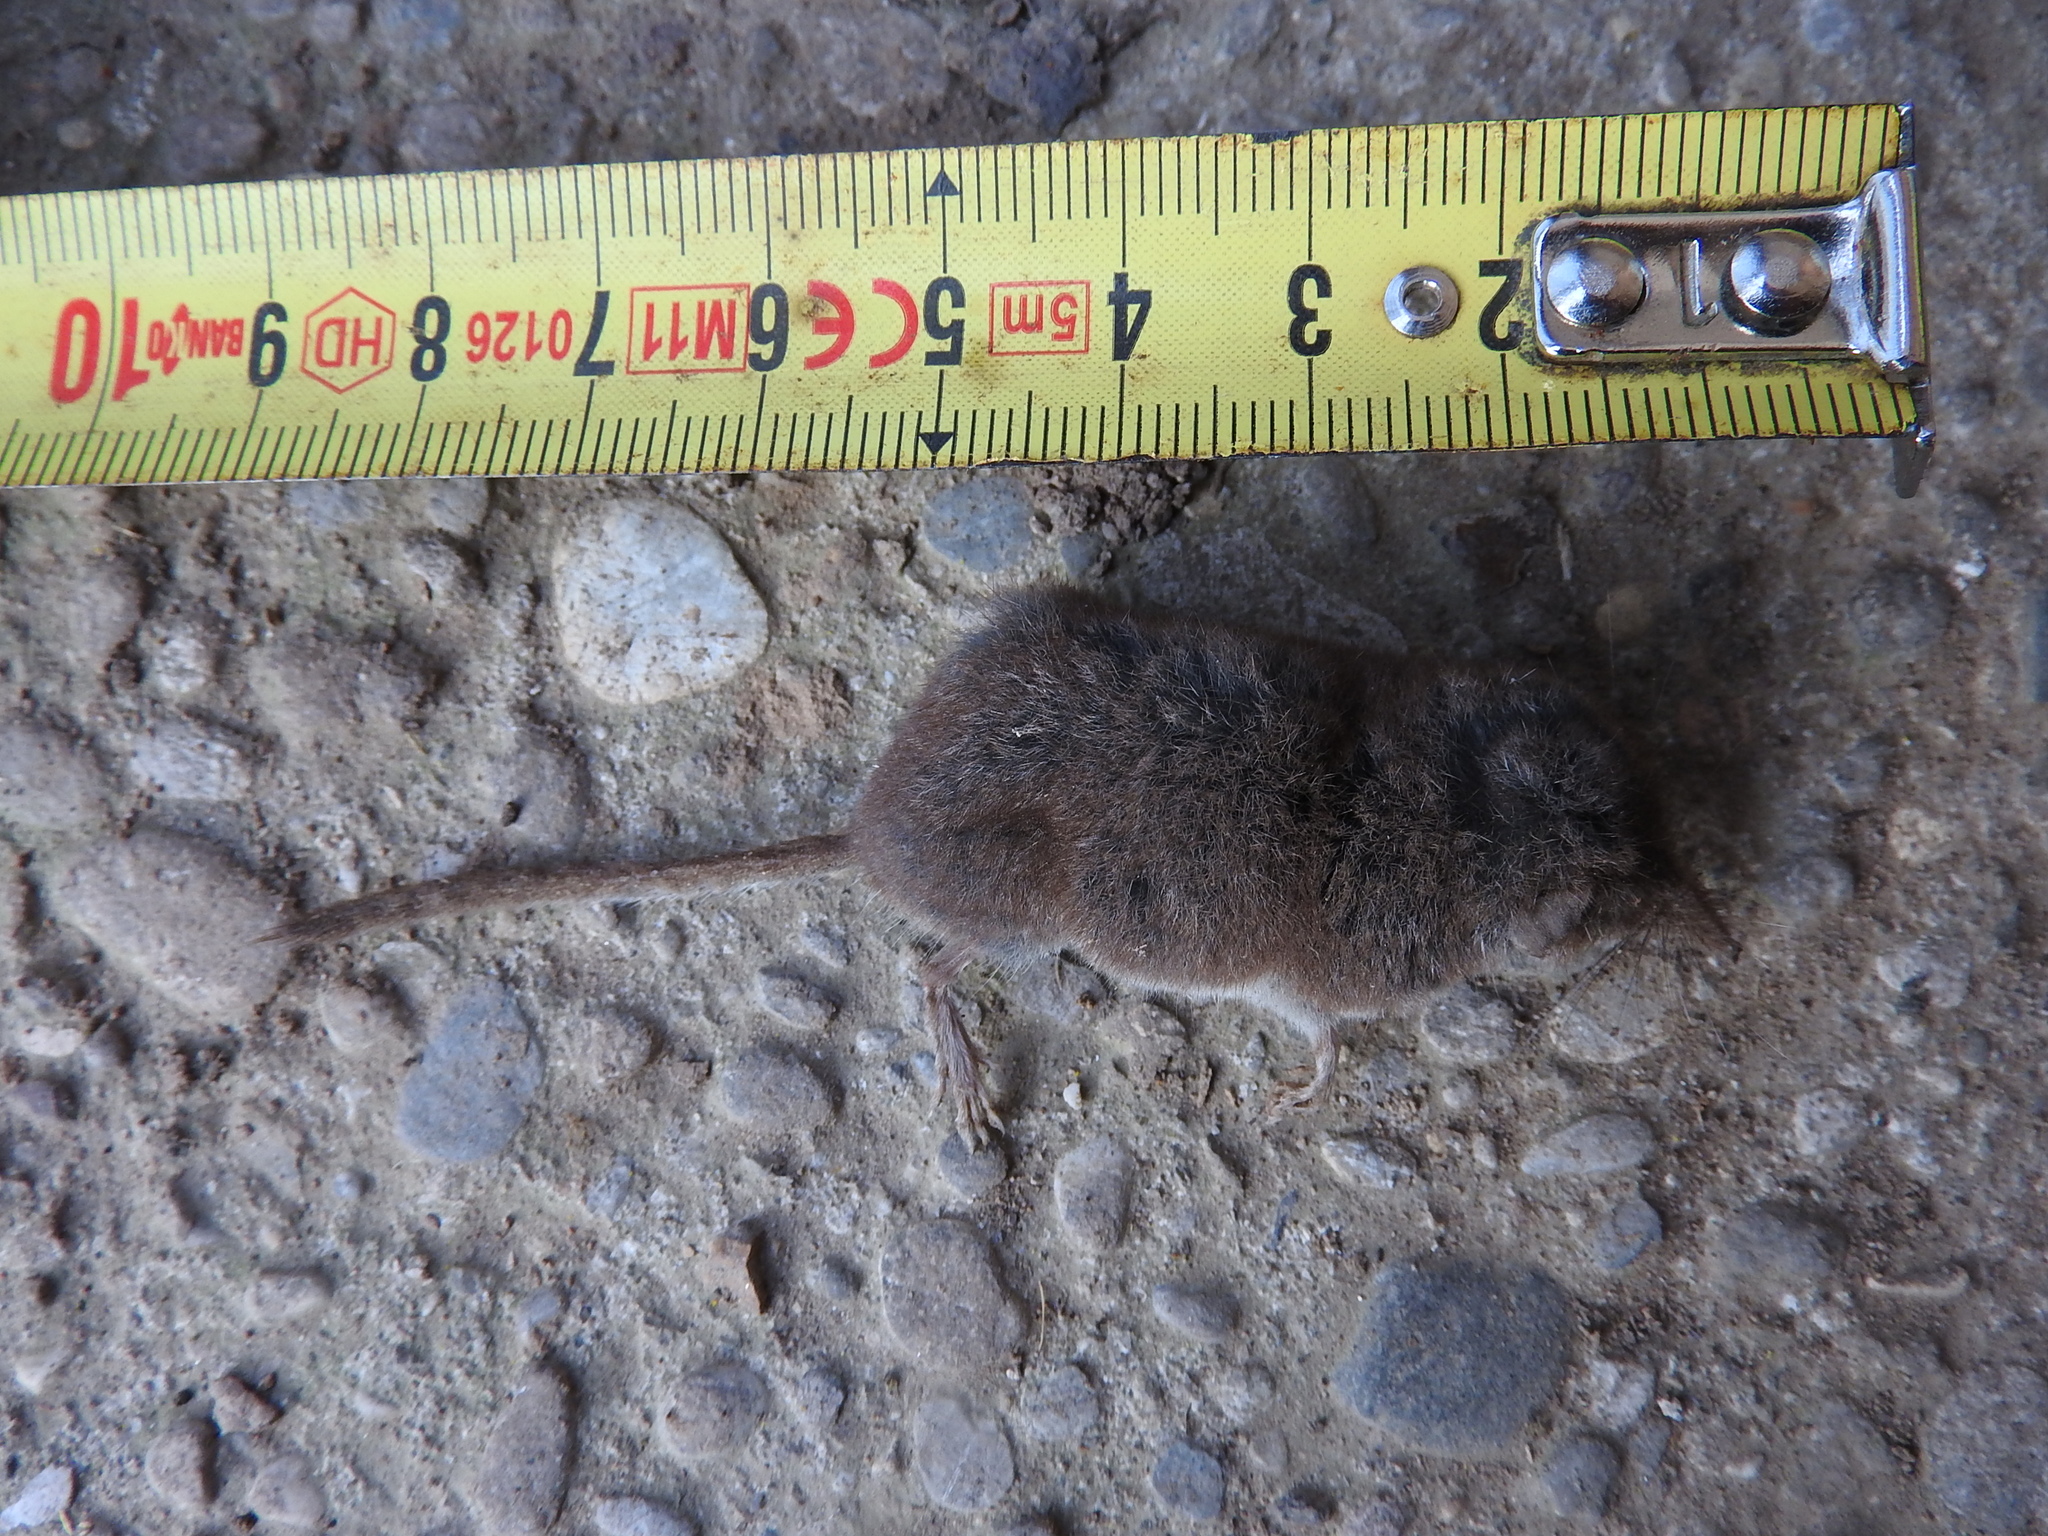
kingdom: Animalia
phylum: Chordata
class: Mammalia
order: Soricomorpha
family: Soricidae
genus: Crocidura
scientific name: Crocidura leucodon
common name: Bicolored shrew
